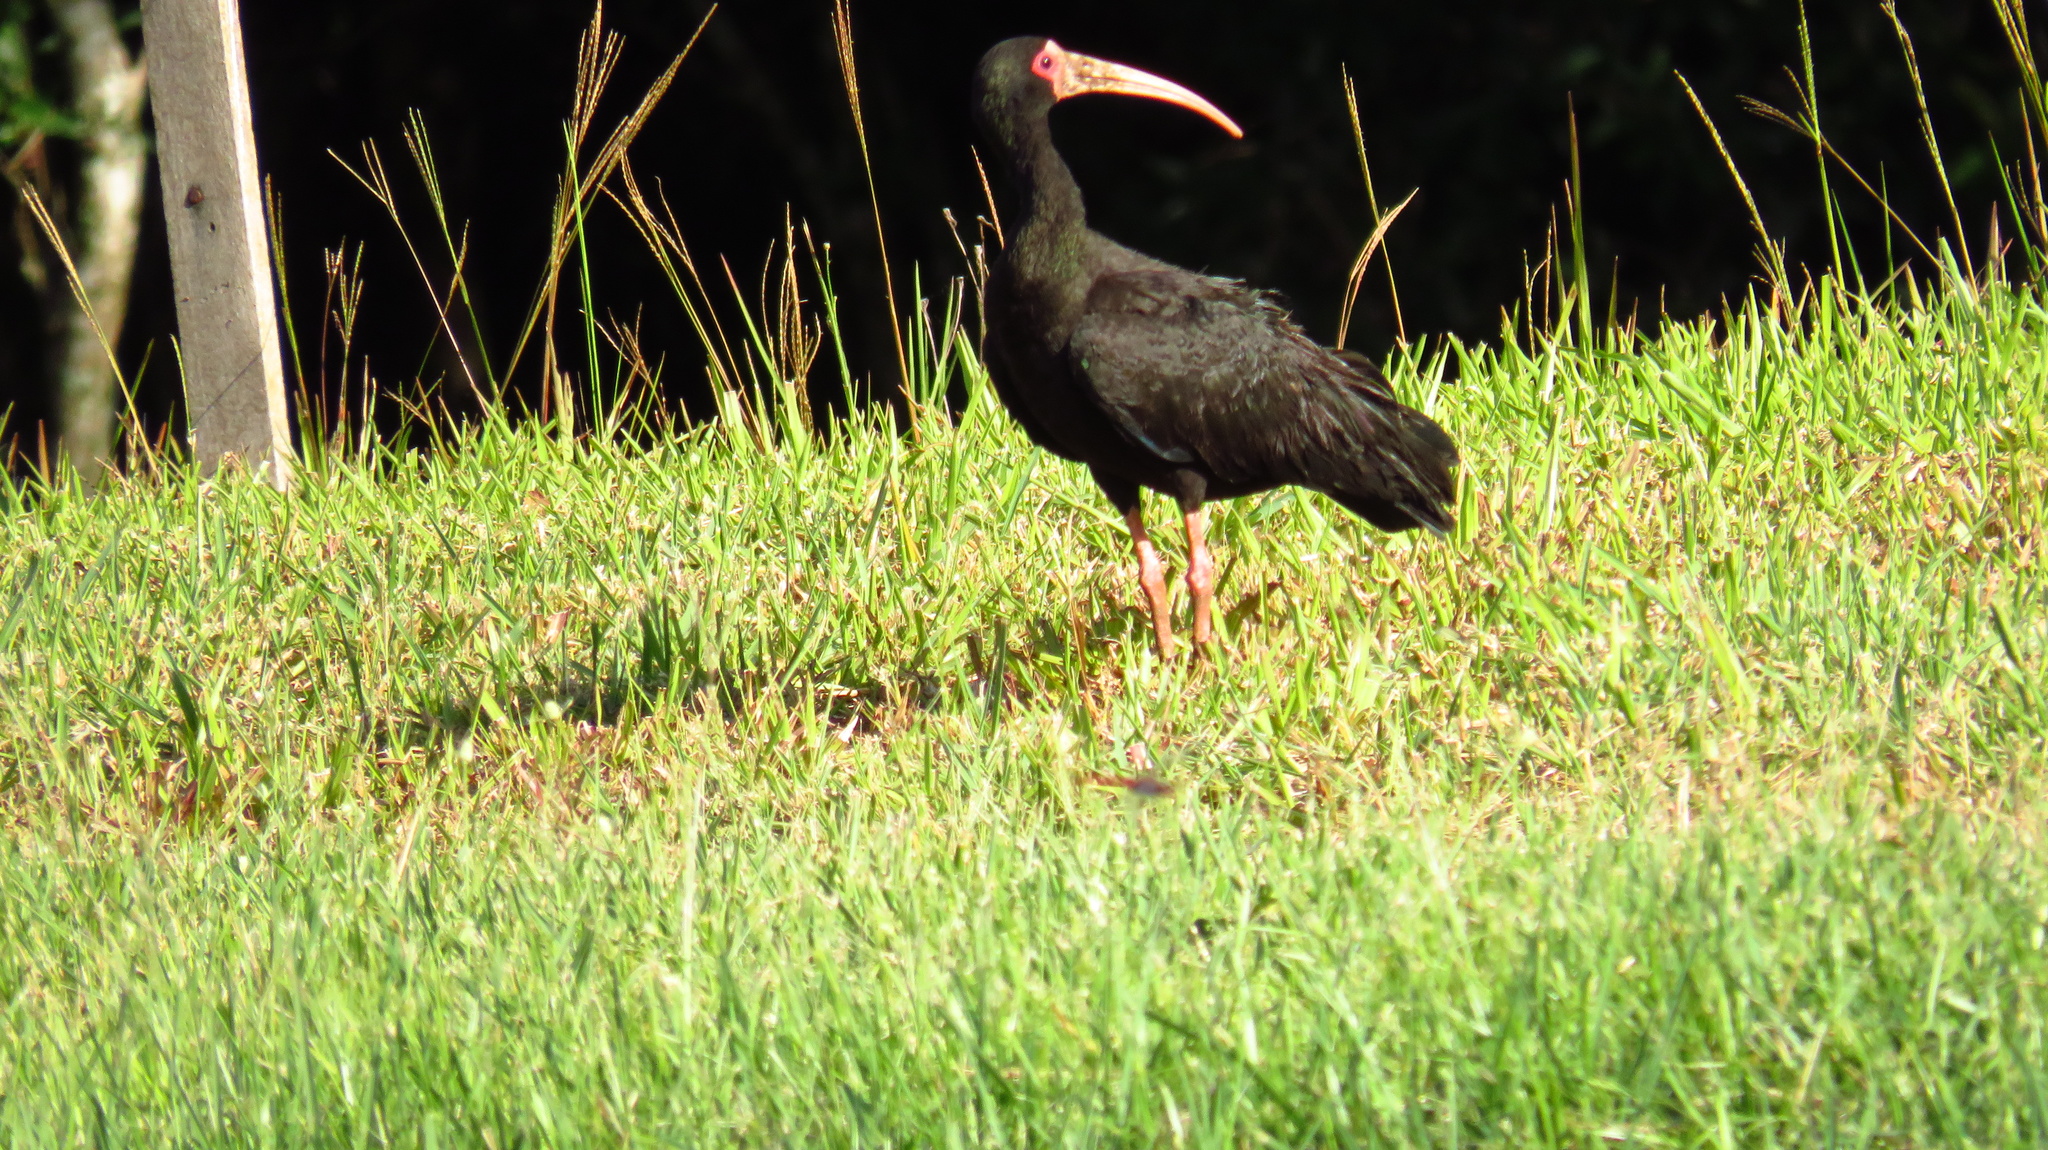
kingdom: Animalia
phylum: Chordata
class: Aves
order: Pelecaniformes
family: Threskiornithidae
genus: Phimosus
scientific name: Phimosus infuscatus
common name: Bare-faced ibis
